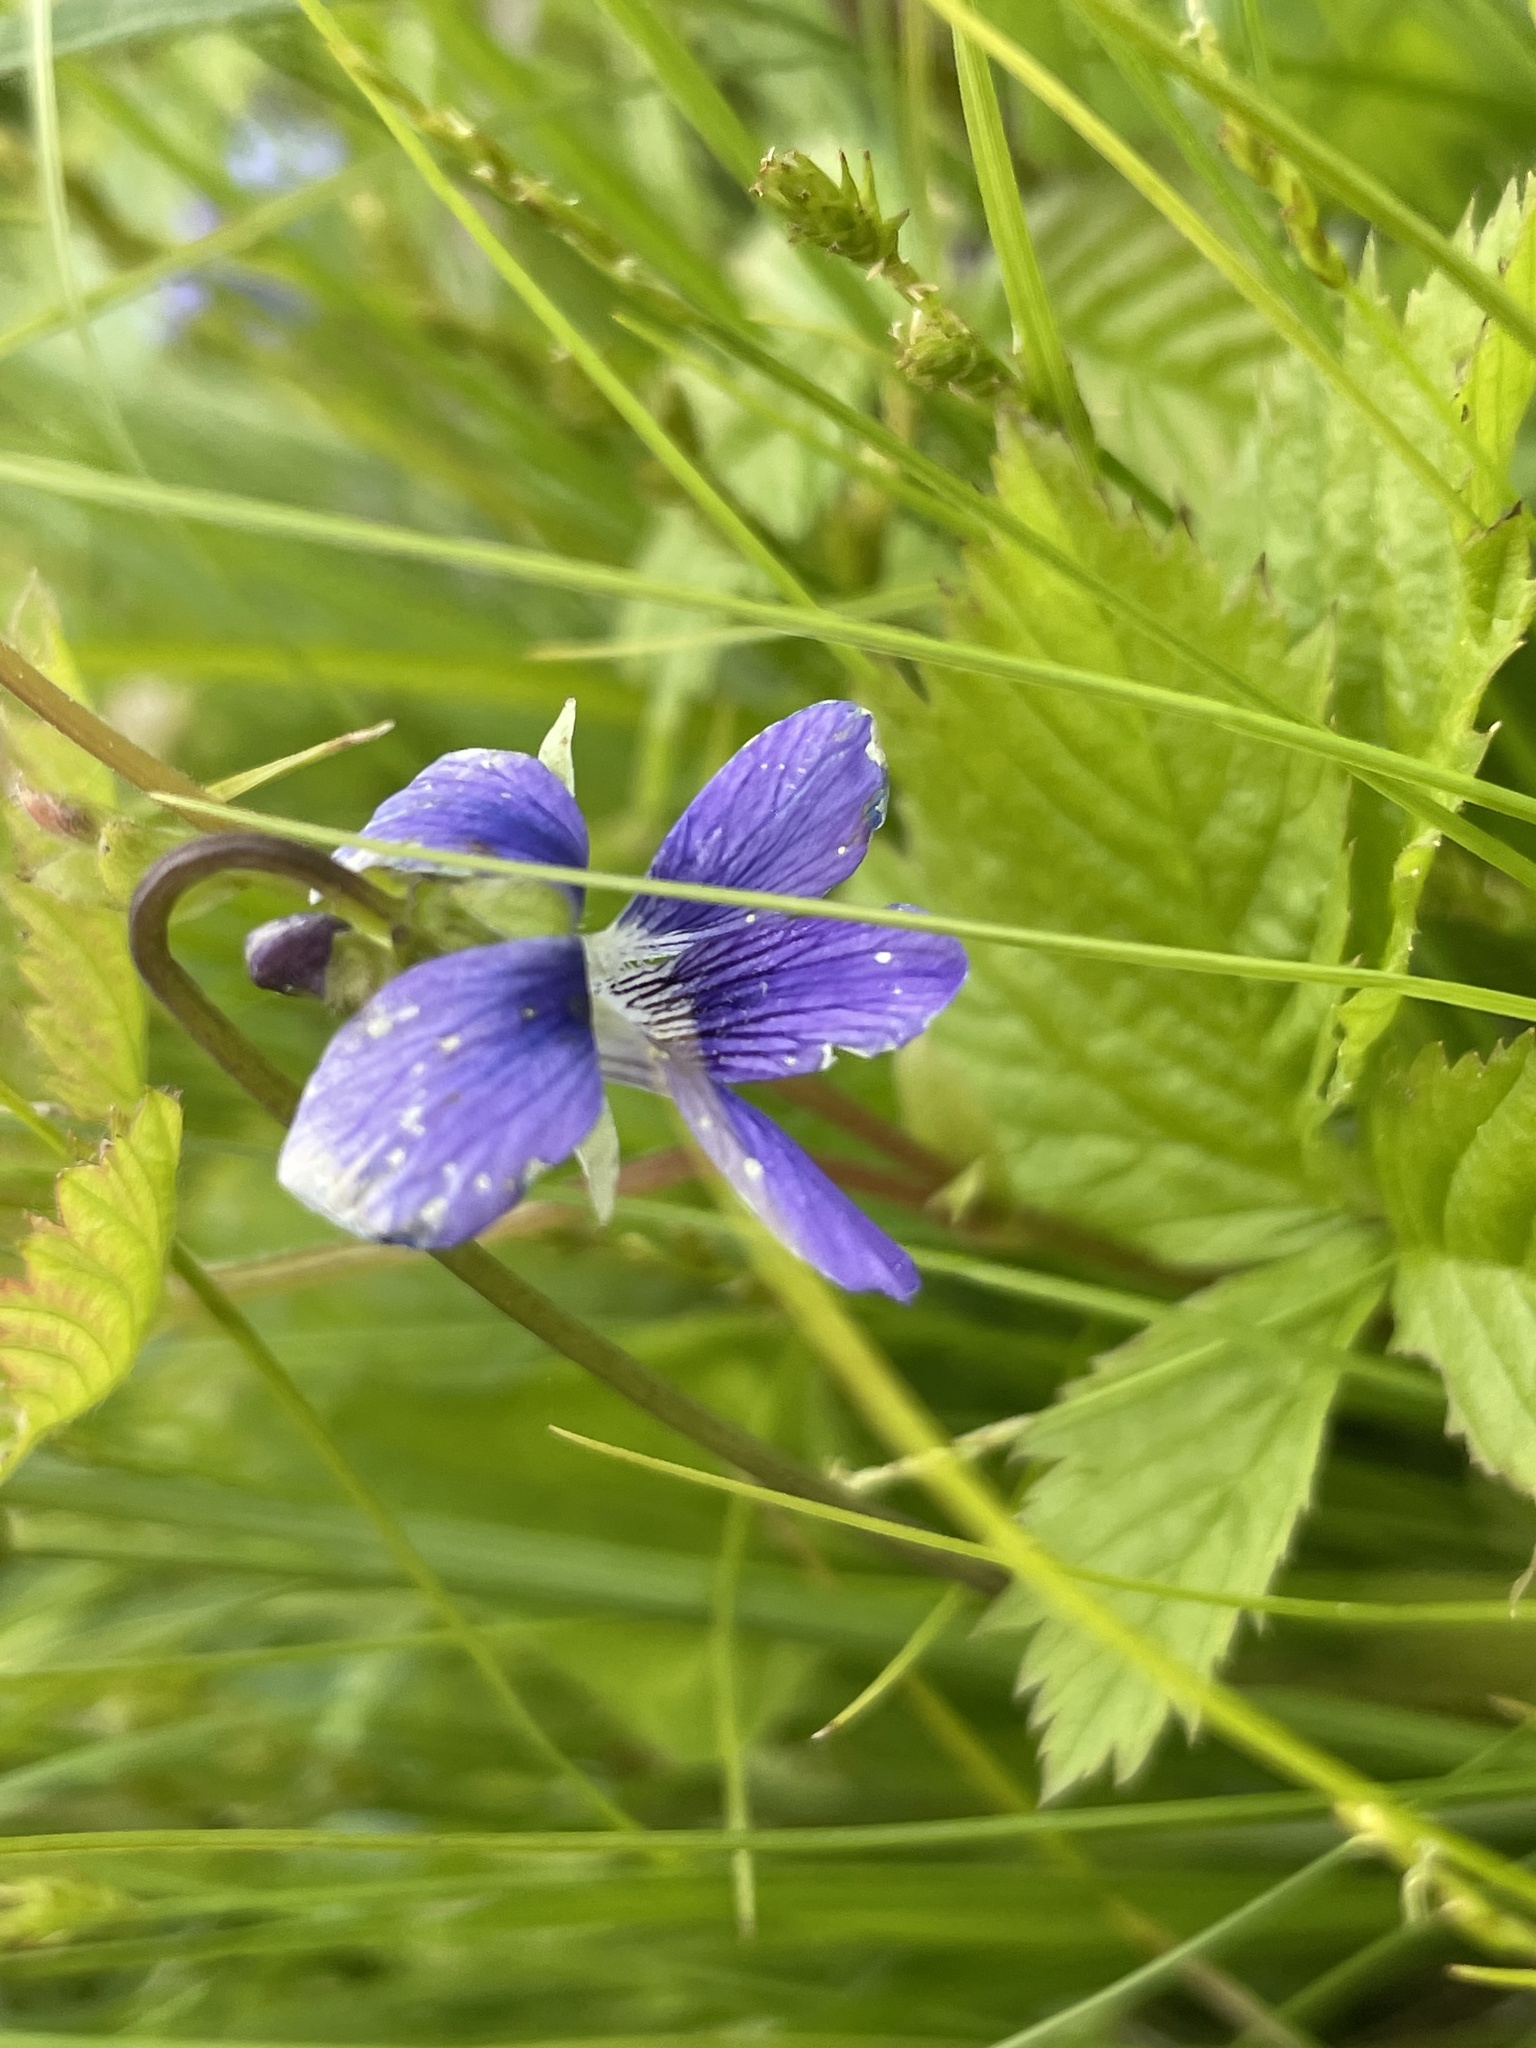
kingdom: Plantae
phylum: Tracheophyta
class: Magnoliopsida
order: Malpighiales
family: Violaceae
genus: Viola
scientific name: Viola cucullata
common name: Marsh blue violet
